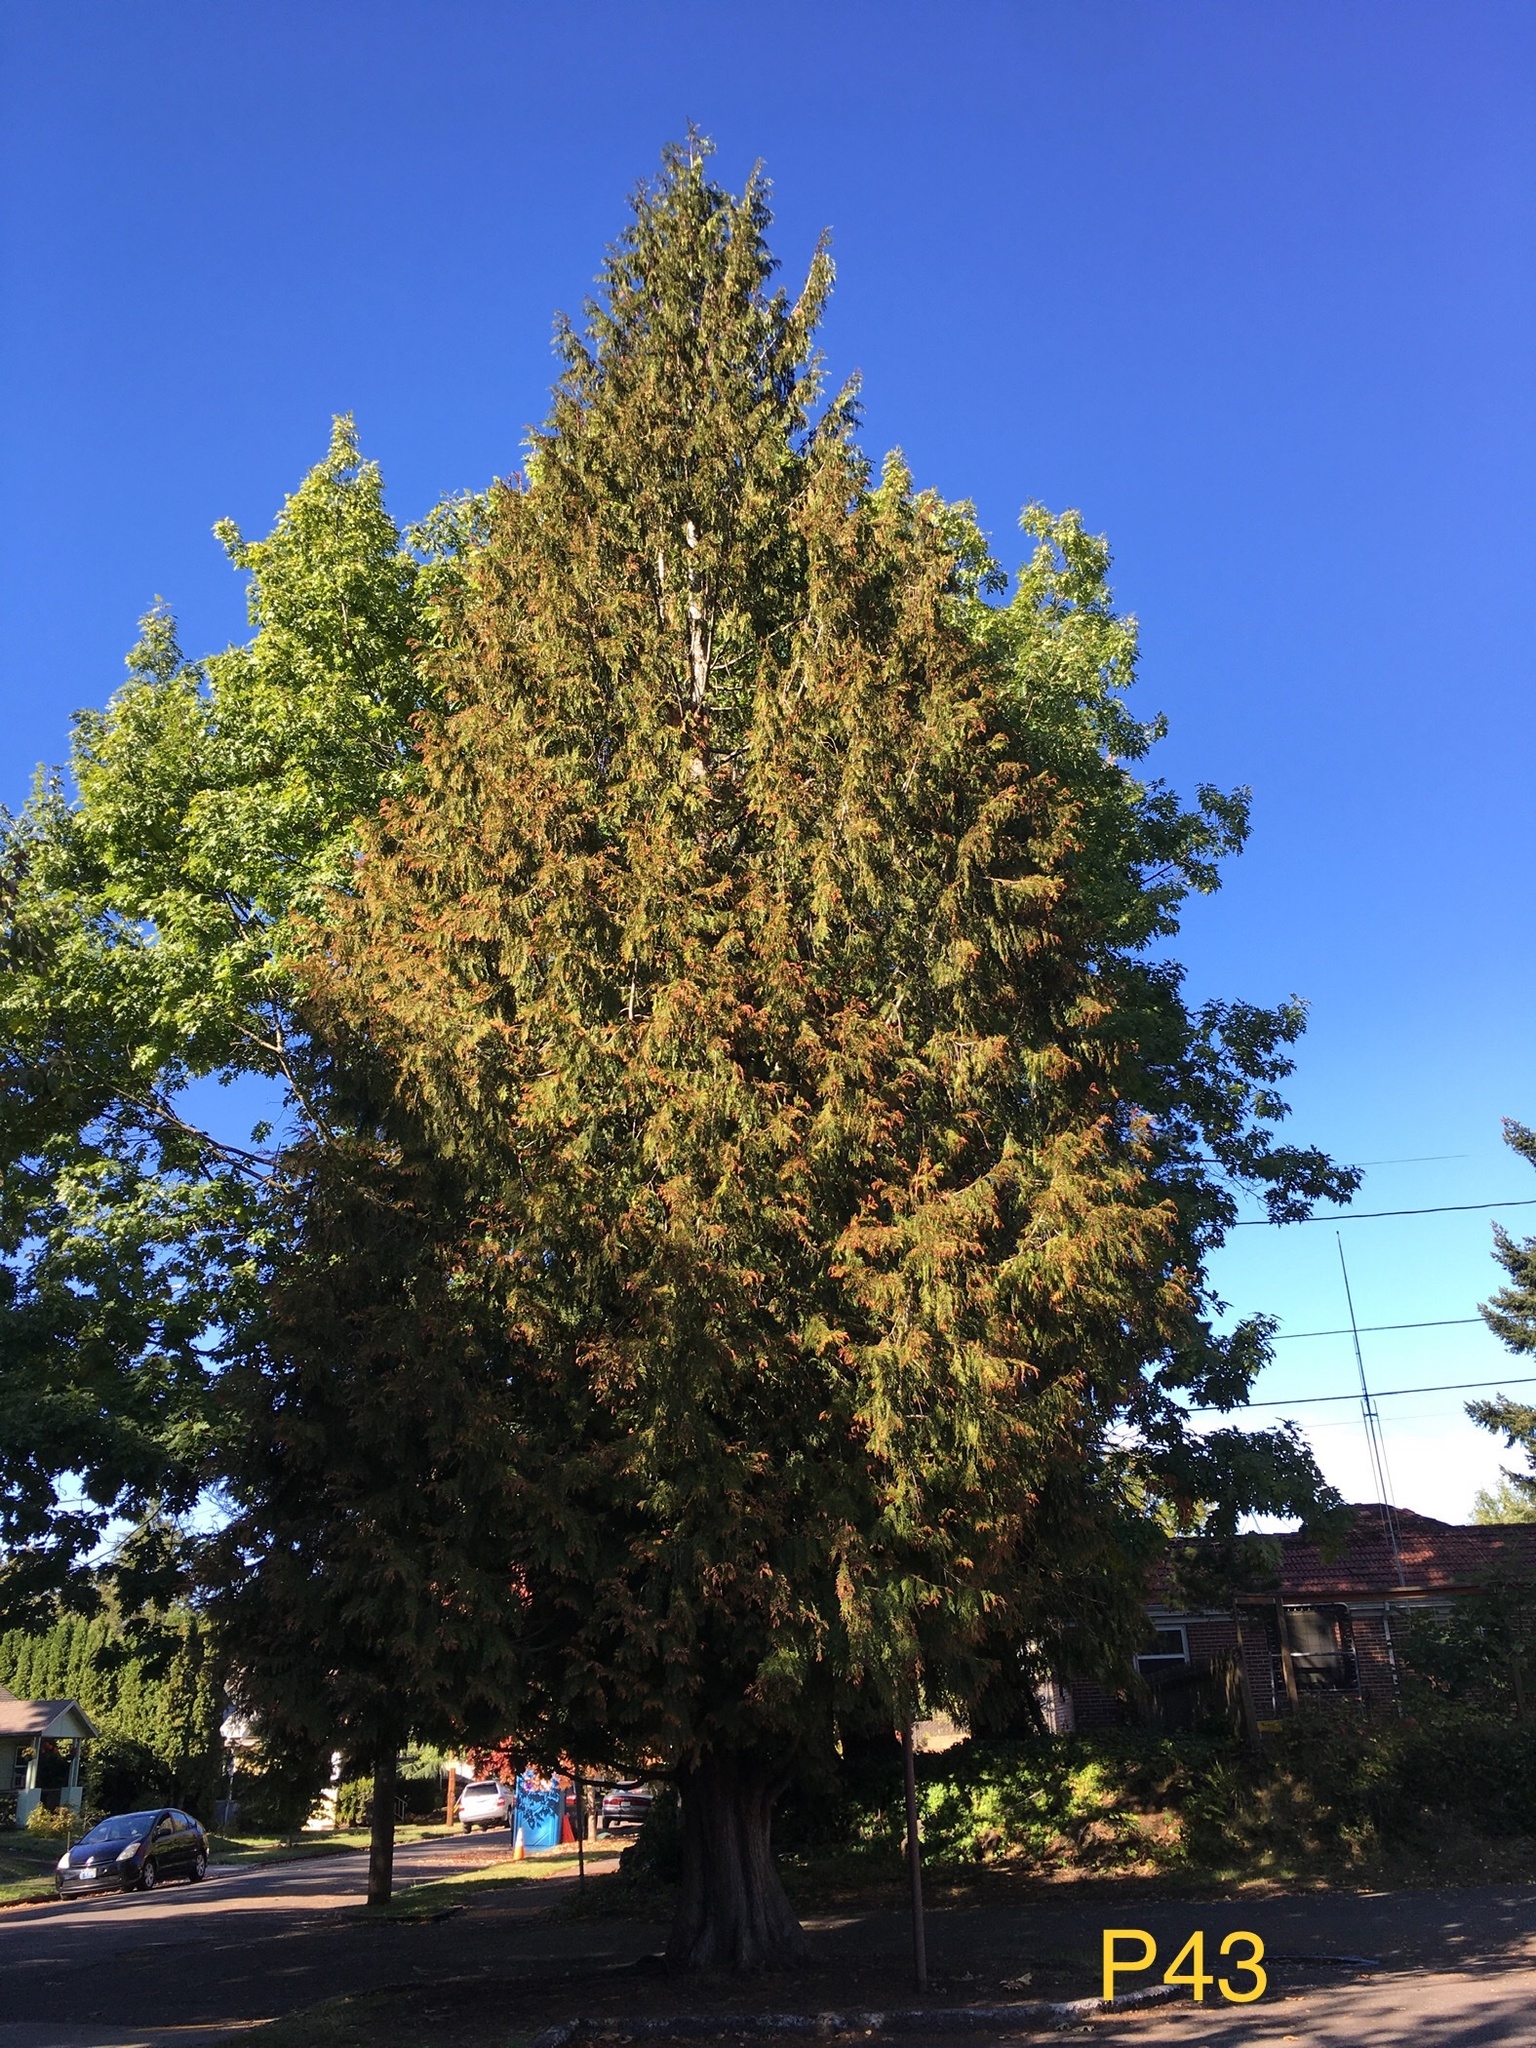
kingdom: Plantae
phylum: Tracheophyta
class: Pinopsida
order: Pinales
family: Cupressaceae
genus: Thuja
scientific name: Thuja plicata
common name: Western red-cedar
